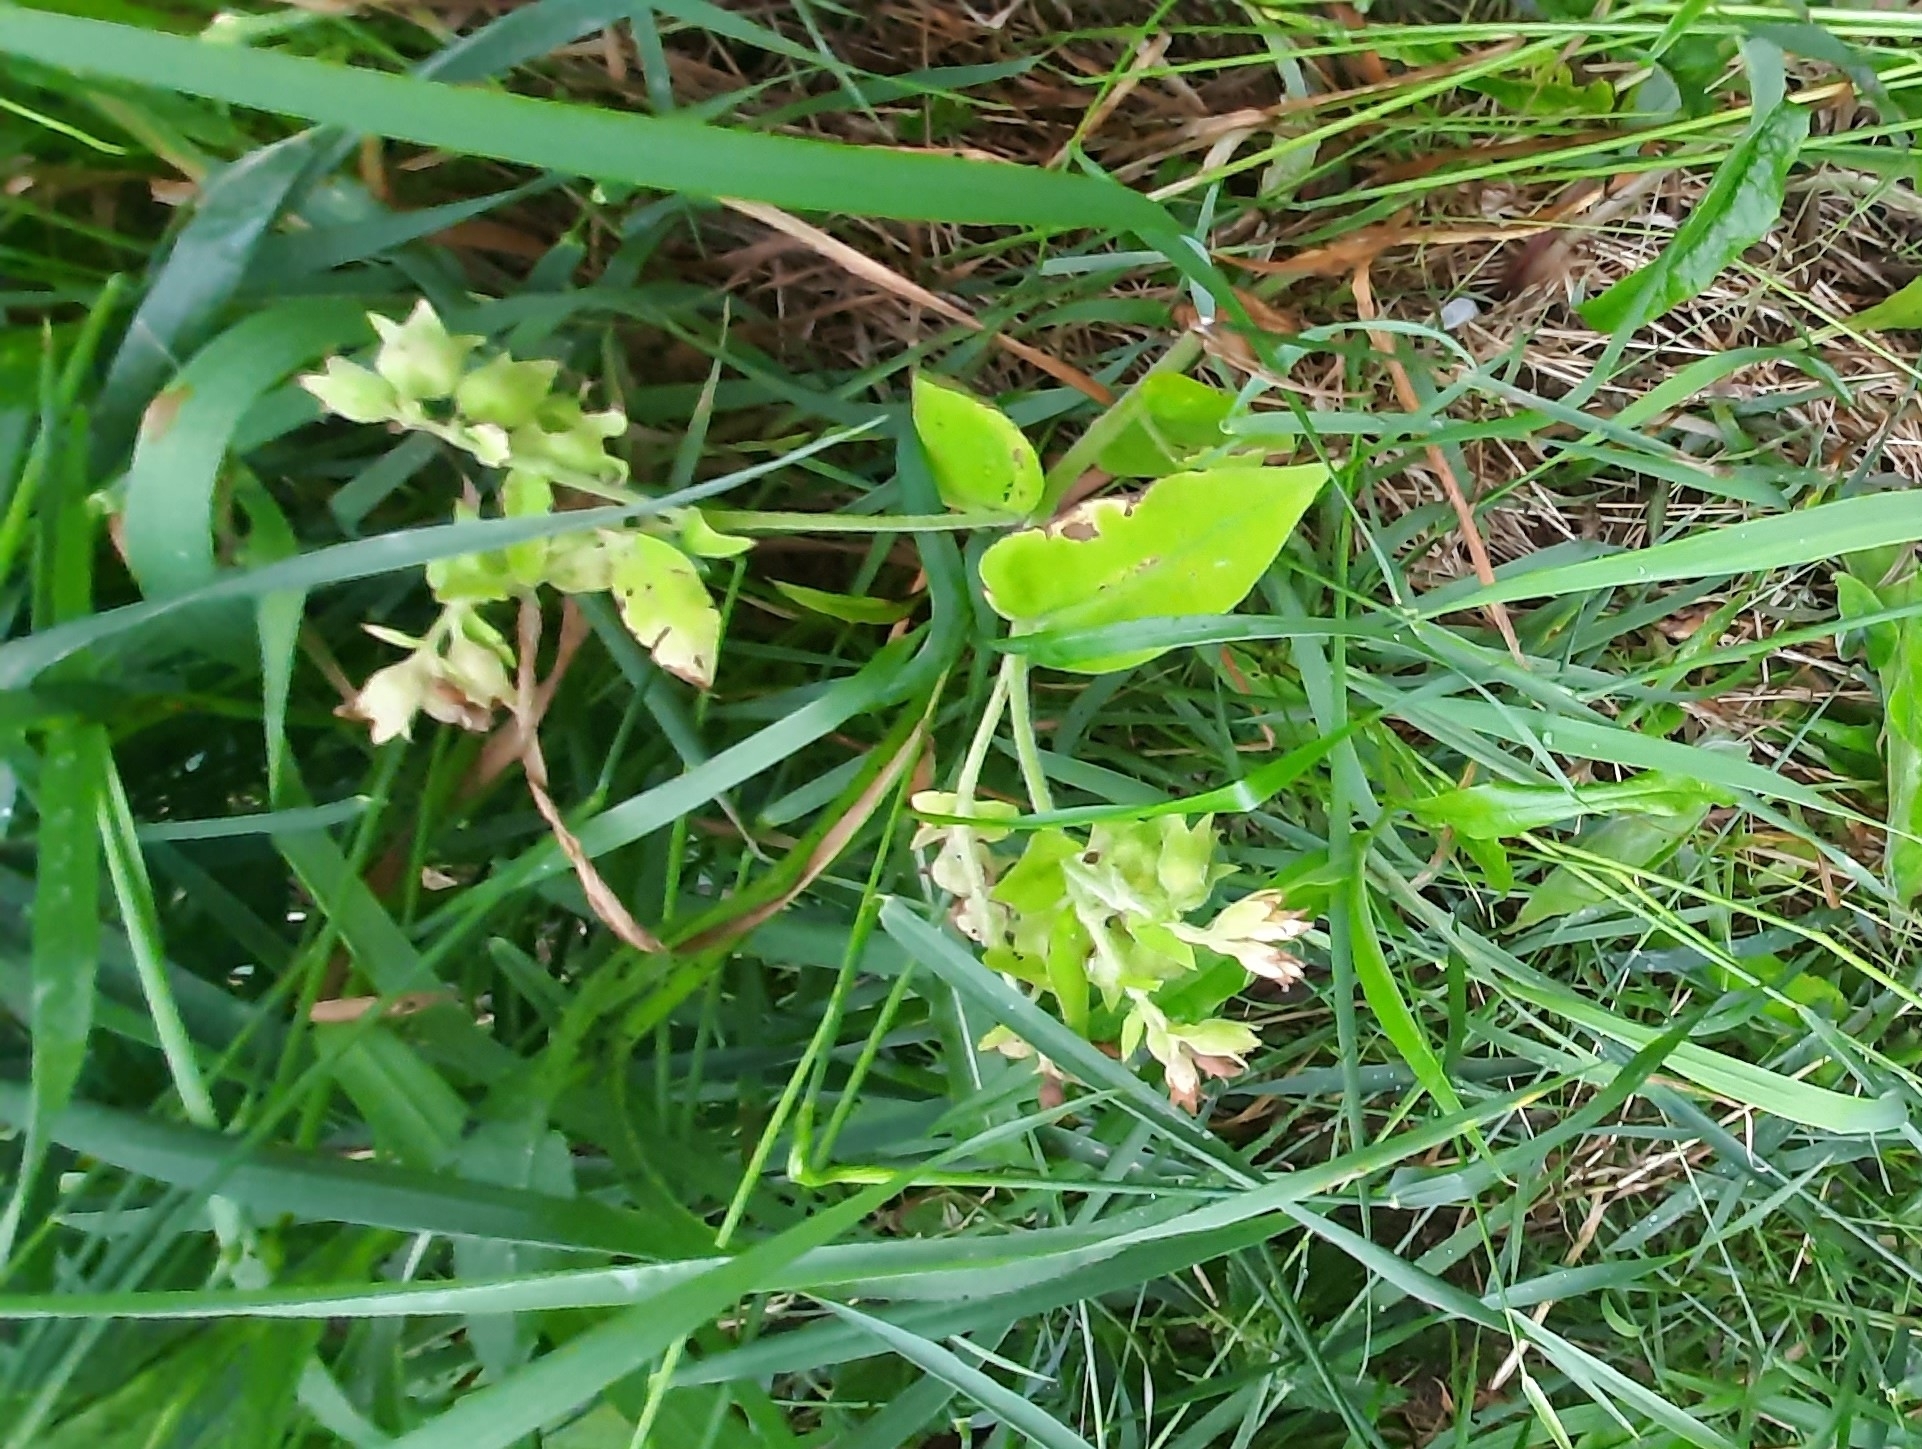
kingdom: Plantae
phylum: Tracheophyta
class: Magnoliopsida
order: Boraginales
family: Boraginaceae
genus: Pulmonaria
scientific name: Pulmonaria mollis
